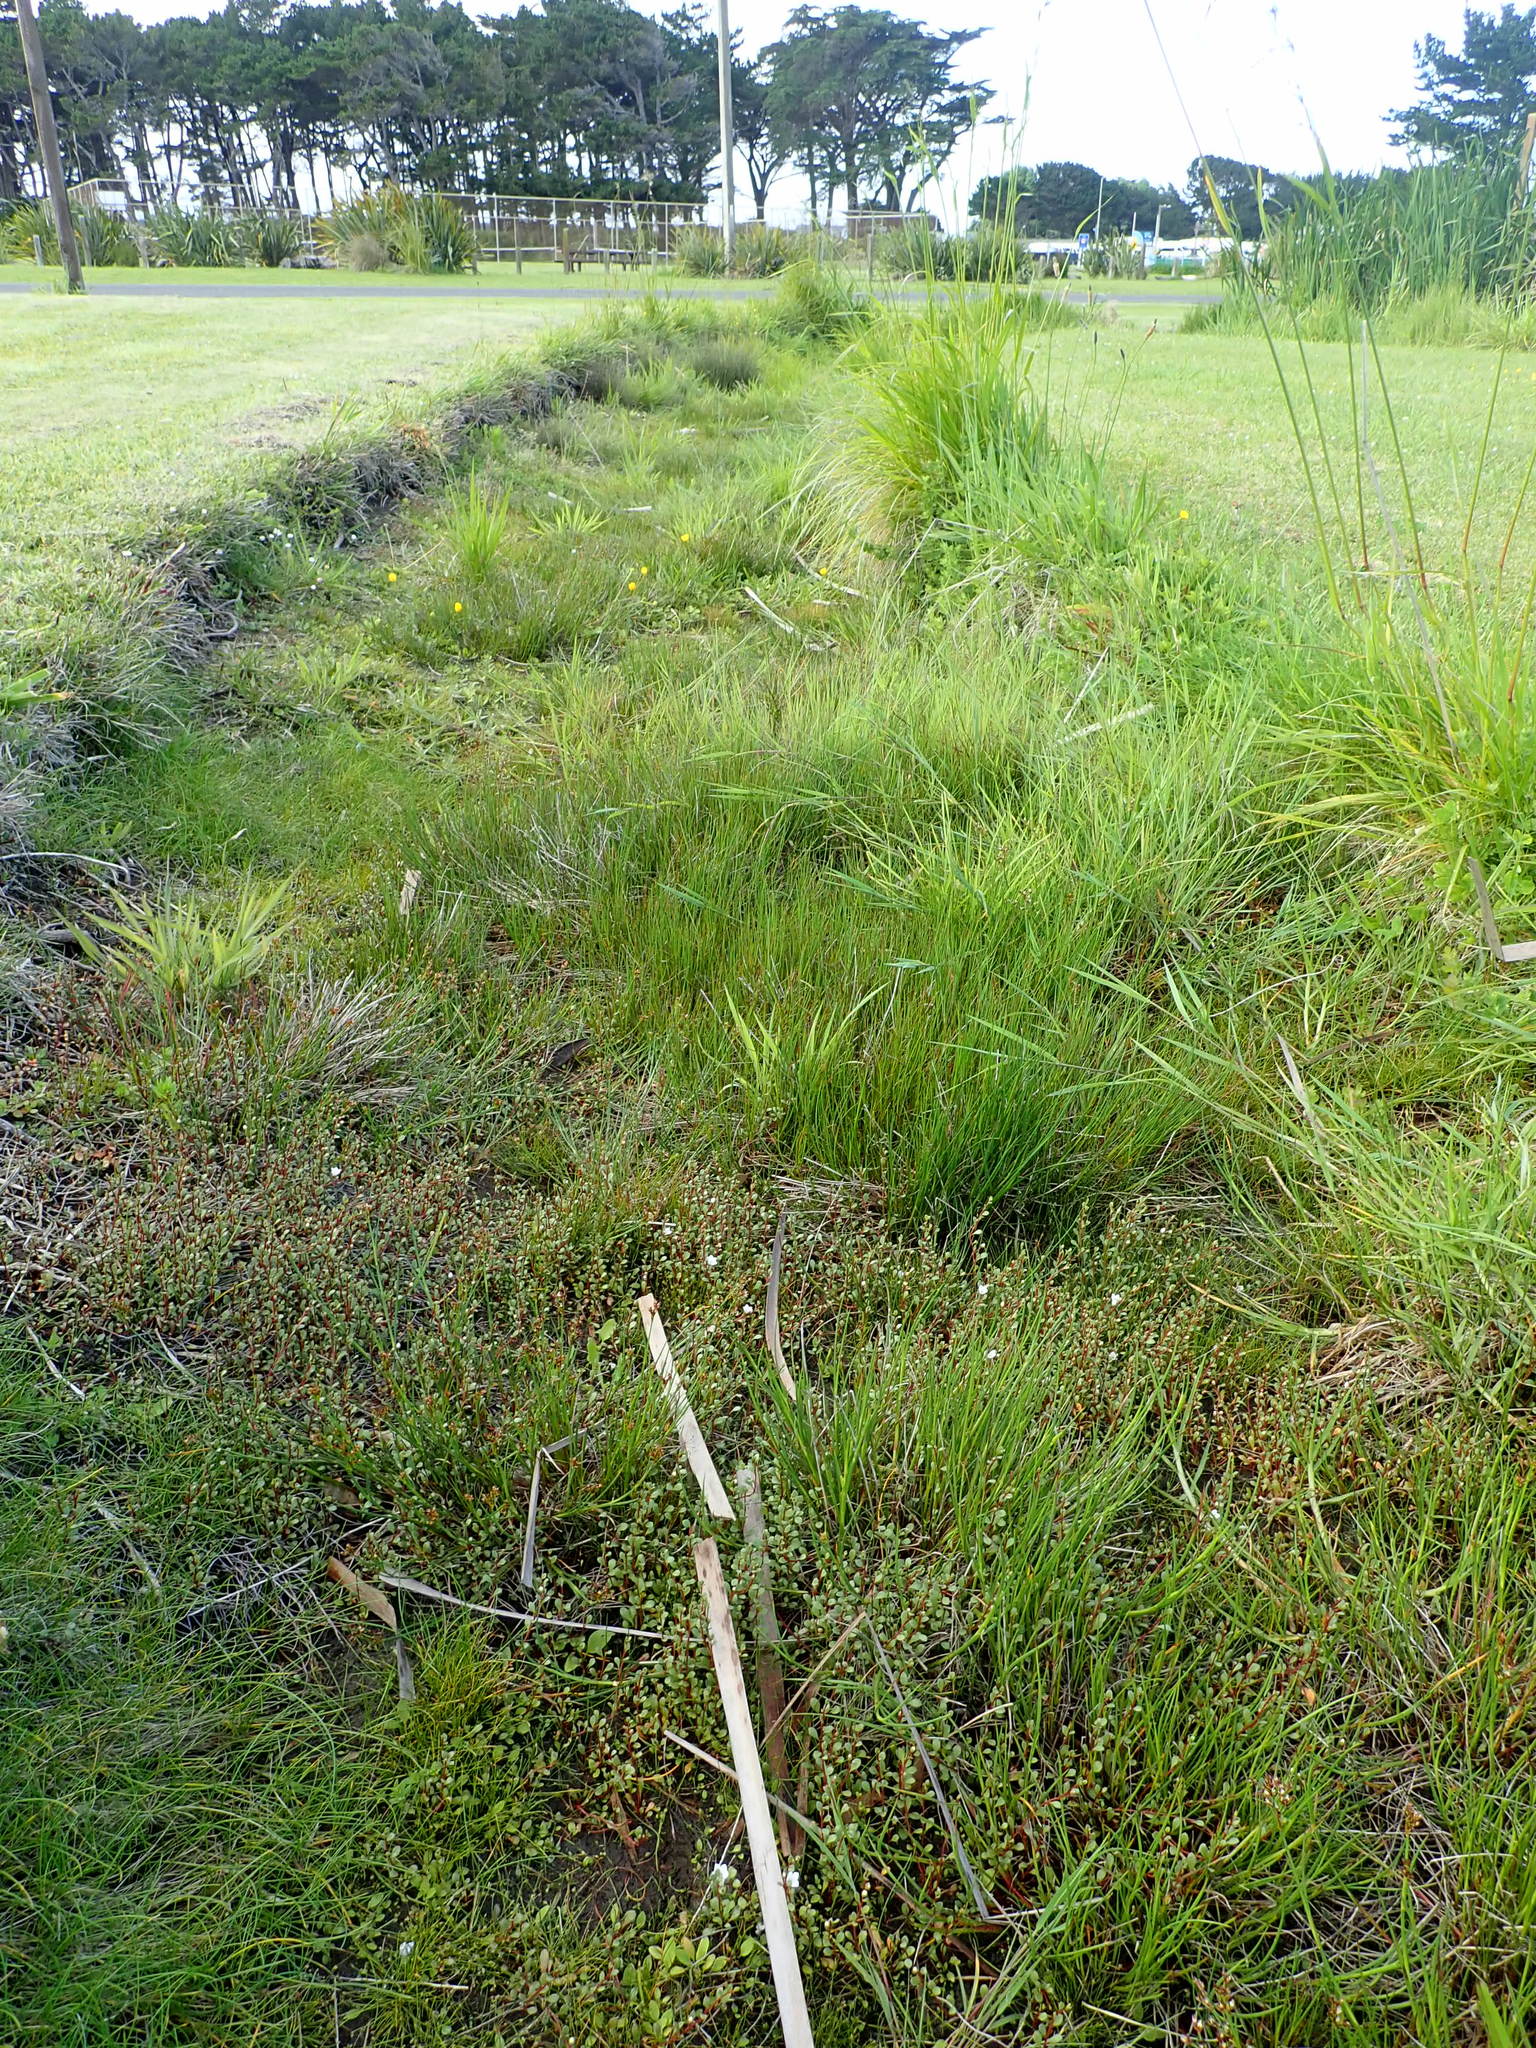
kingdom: Plantae
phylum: Tracheophyta
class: Magnoliopsida
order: Ericales
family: Primulaceae
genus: Samolus
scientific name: Samolus repens
